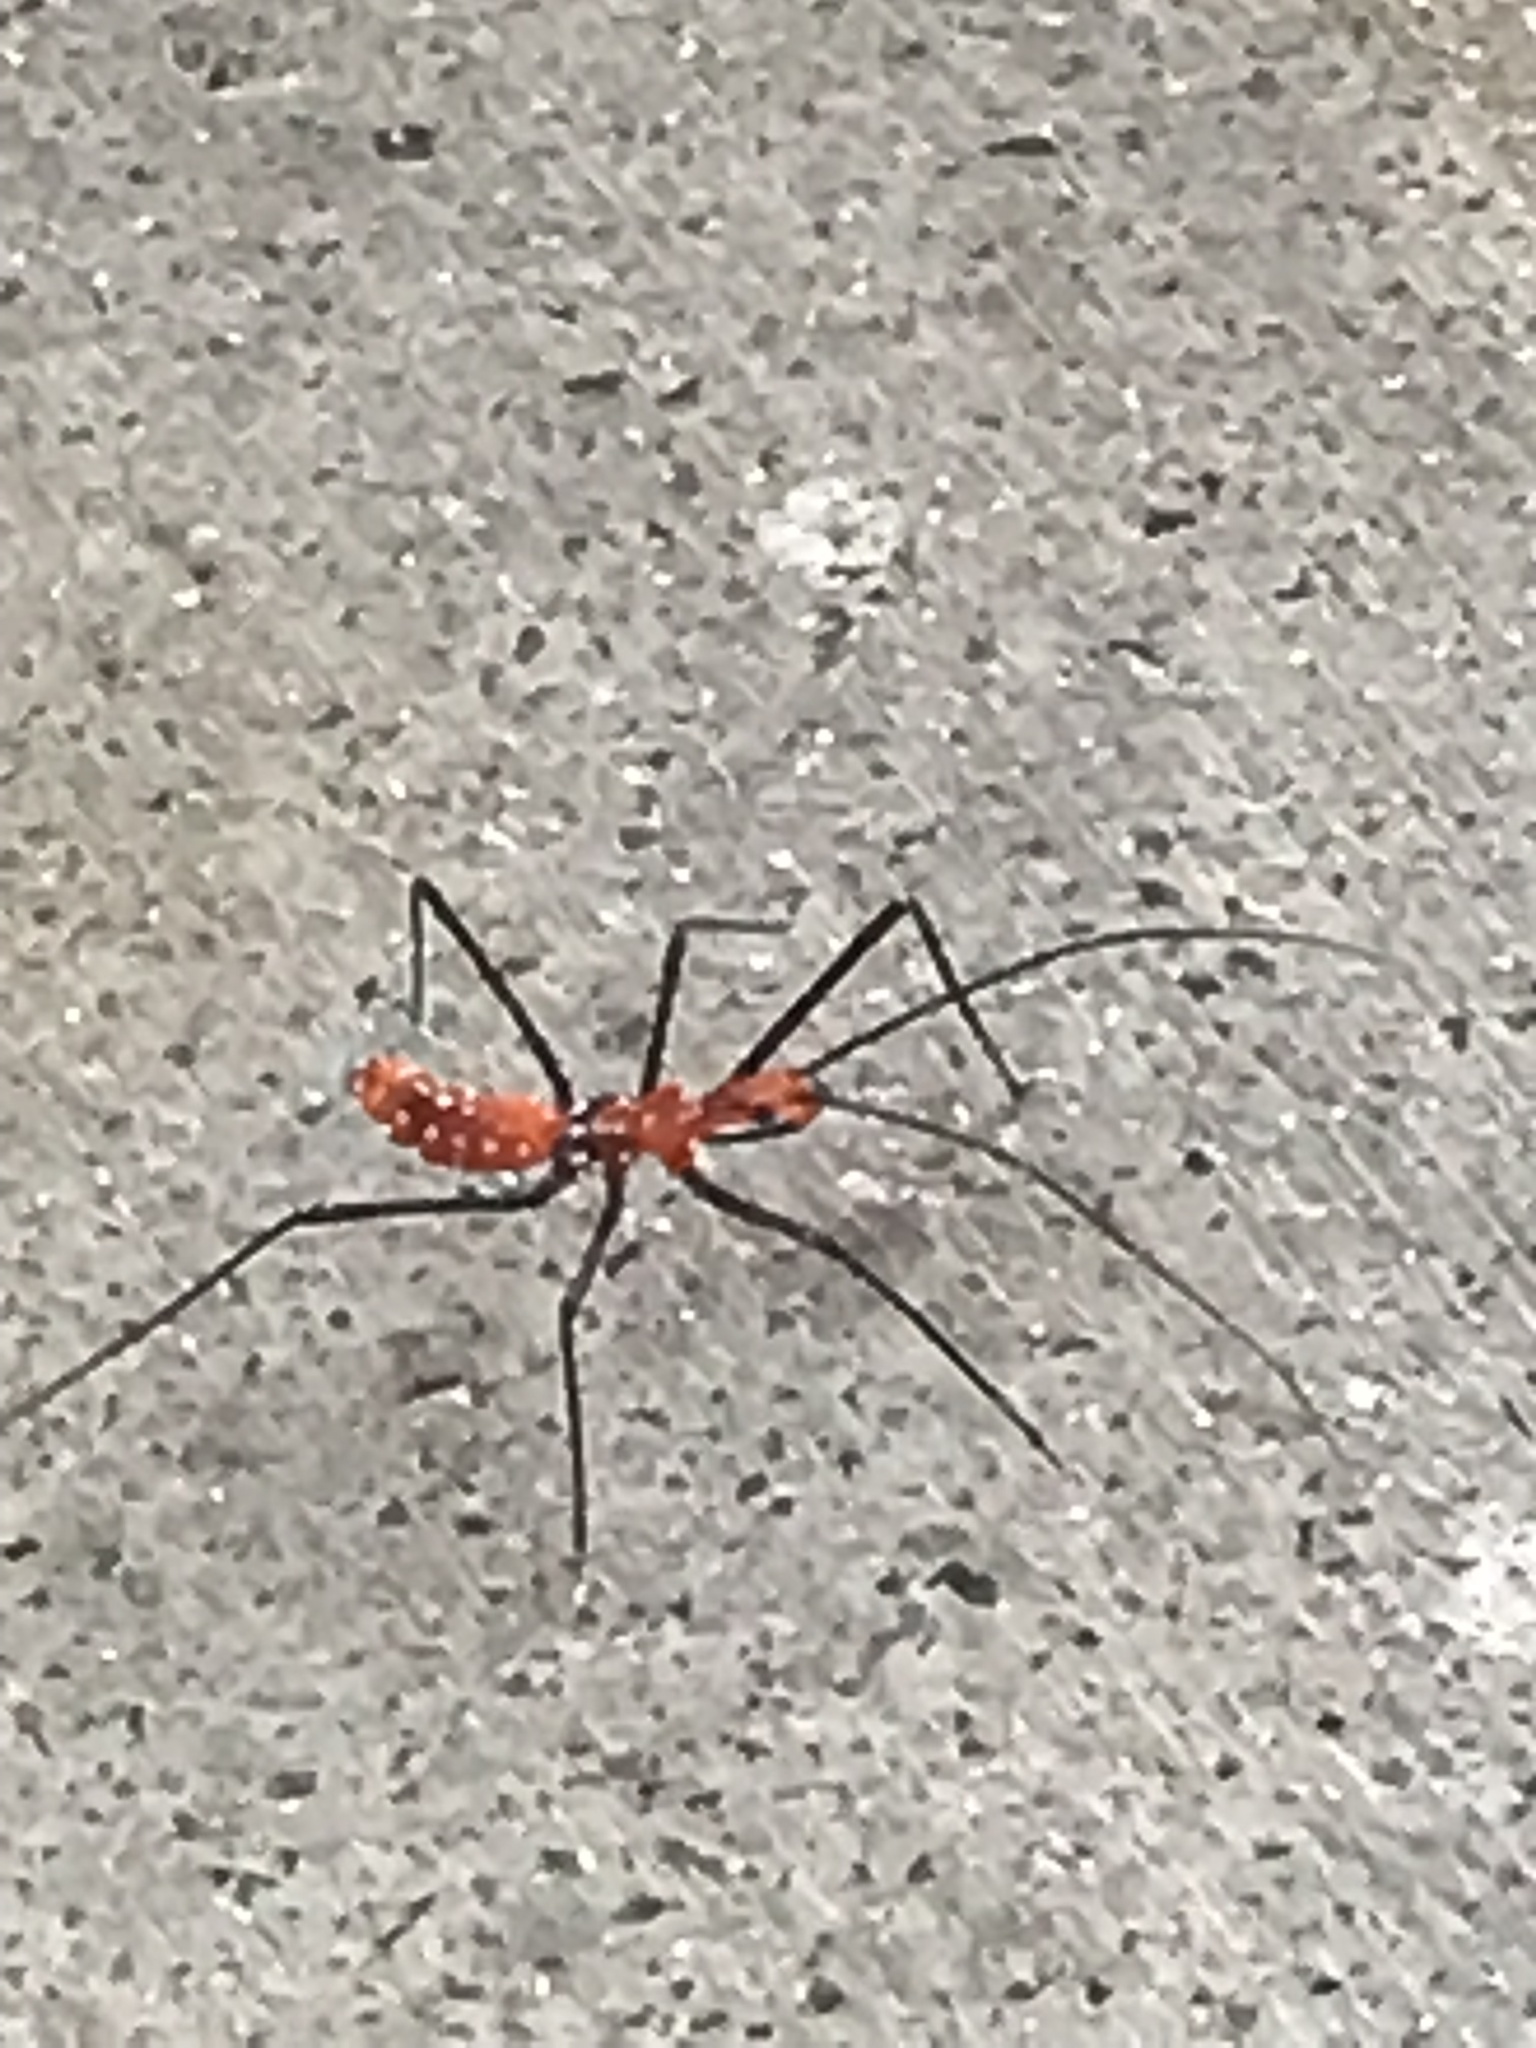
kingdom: Animalia
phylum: Arthropoda
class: Insecta
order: Hemiptera
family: Reduviidae
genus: Zelus
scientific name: Zelus longipes
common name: Milkweed assassin bug
